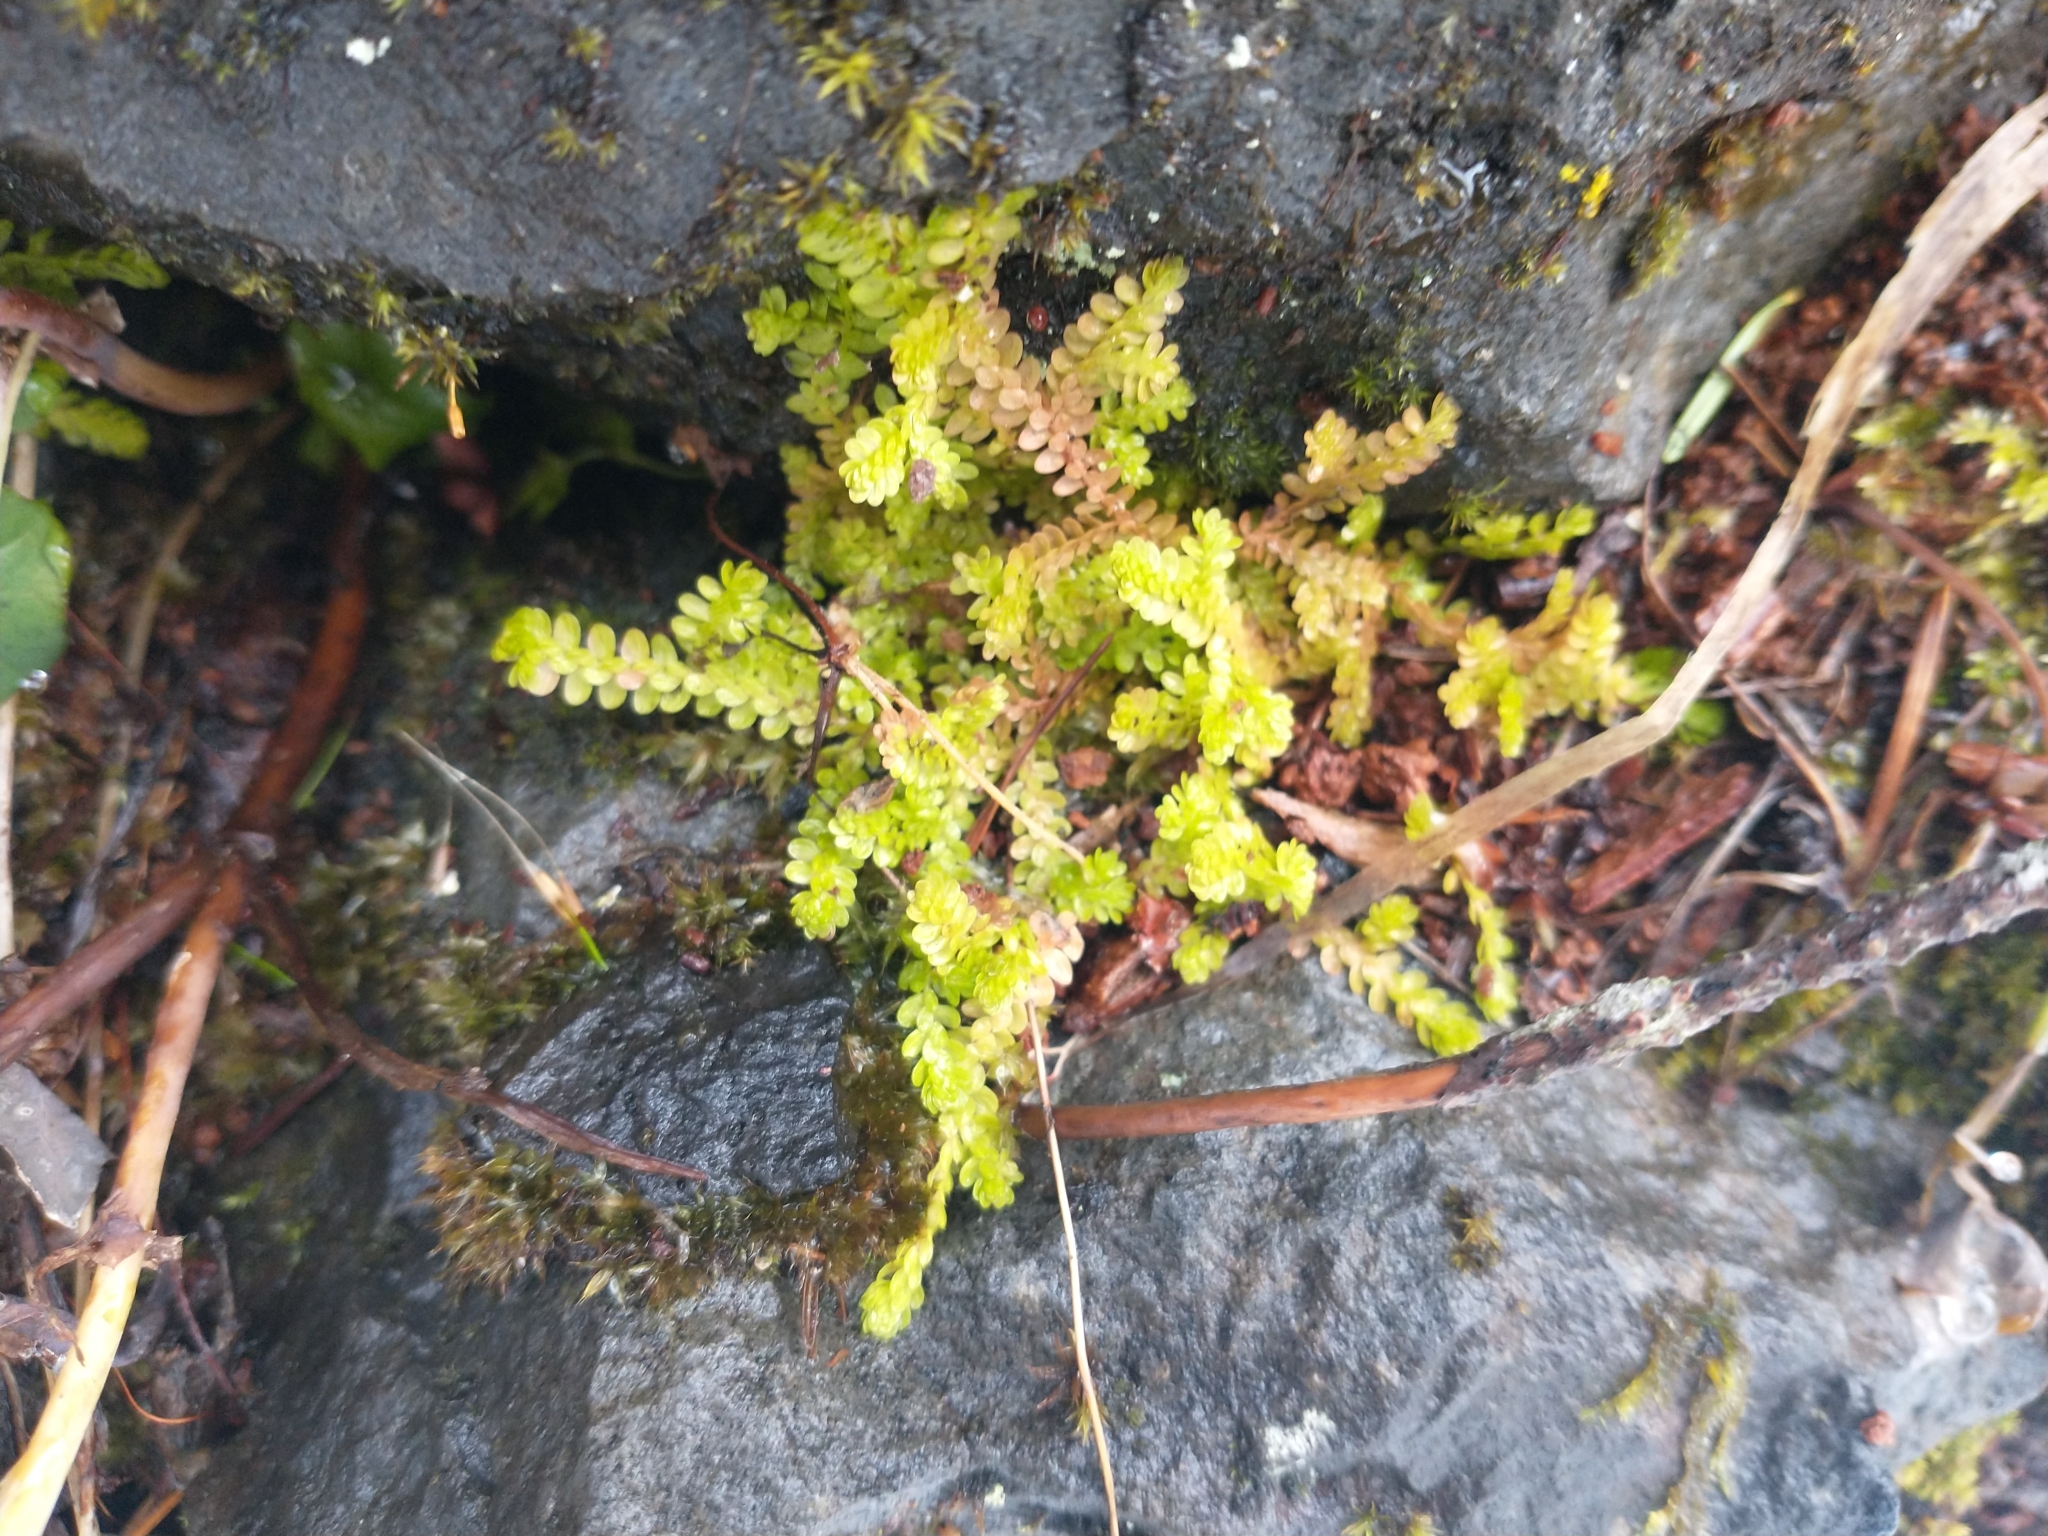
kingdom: Plantae
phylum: Tracheophyta
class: Lycopodiopsida
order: Selaginellales
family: Selaginellaceae
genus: Selaginella
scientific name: Selaginella douglasii
